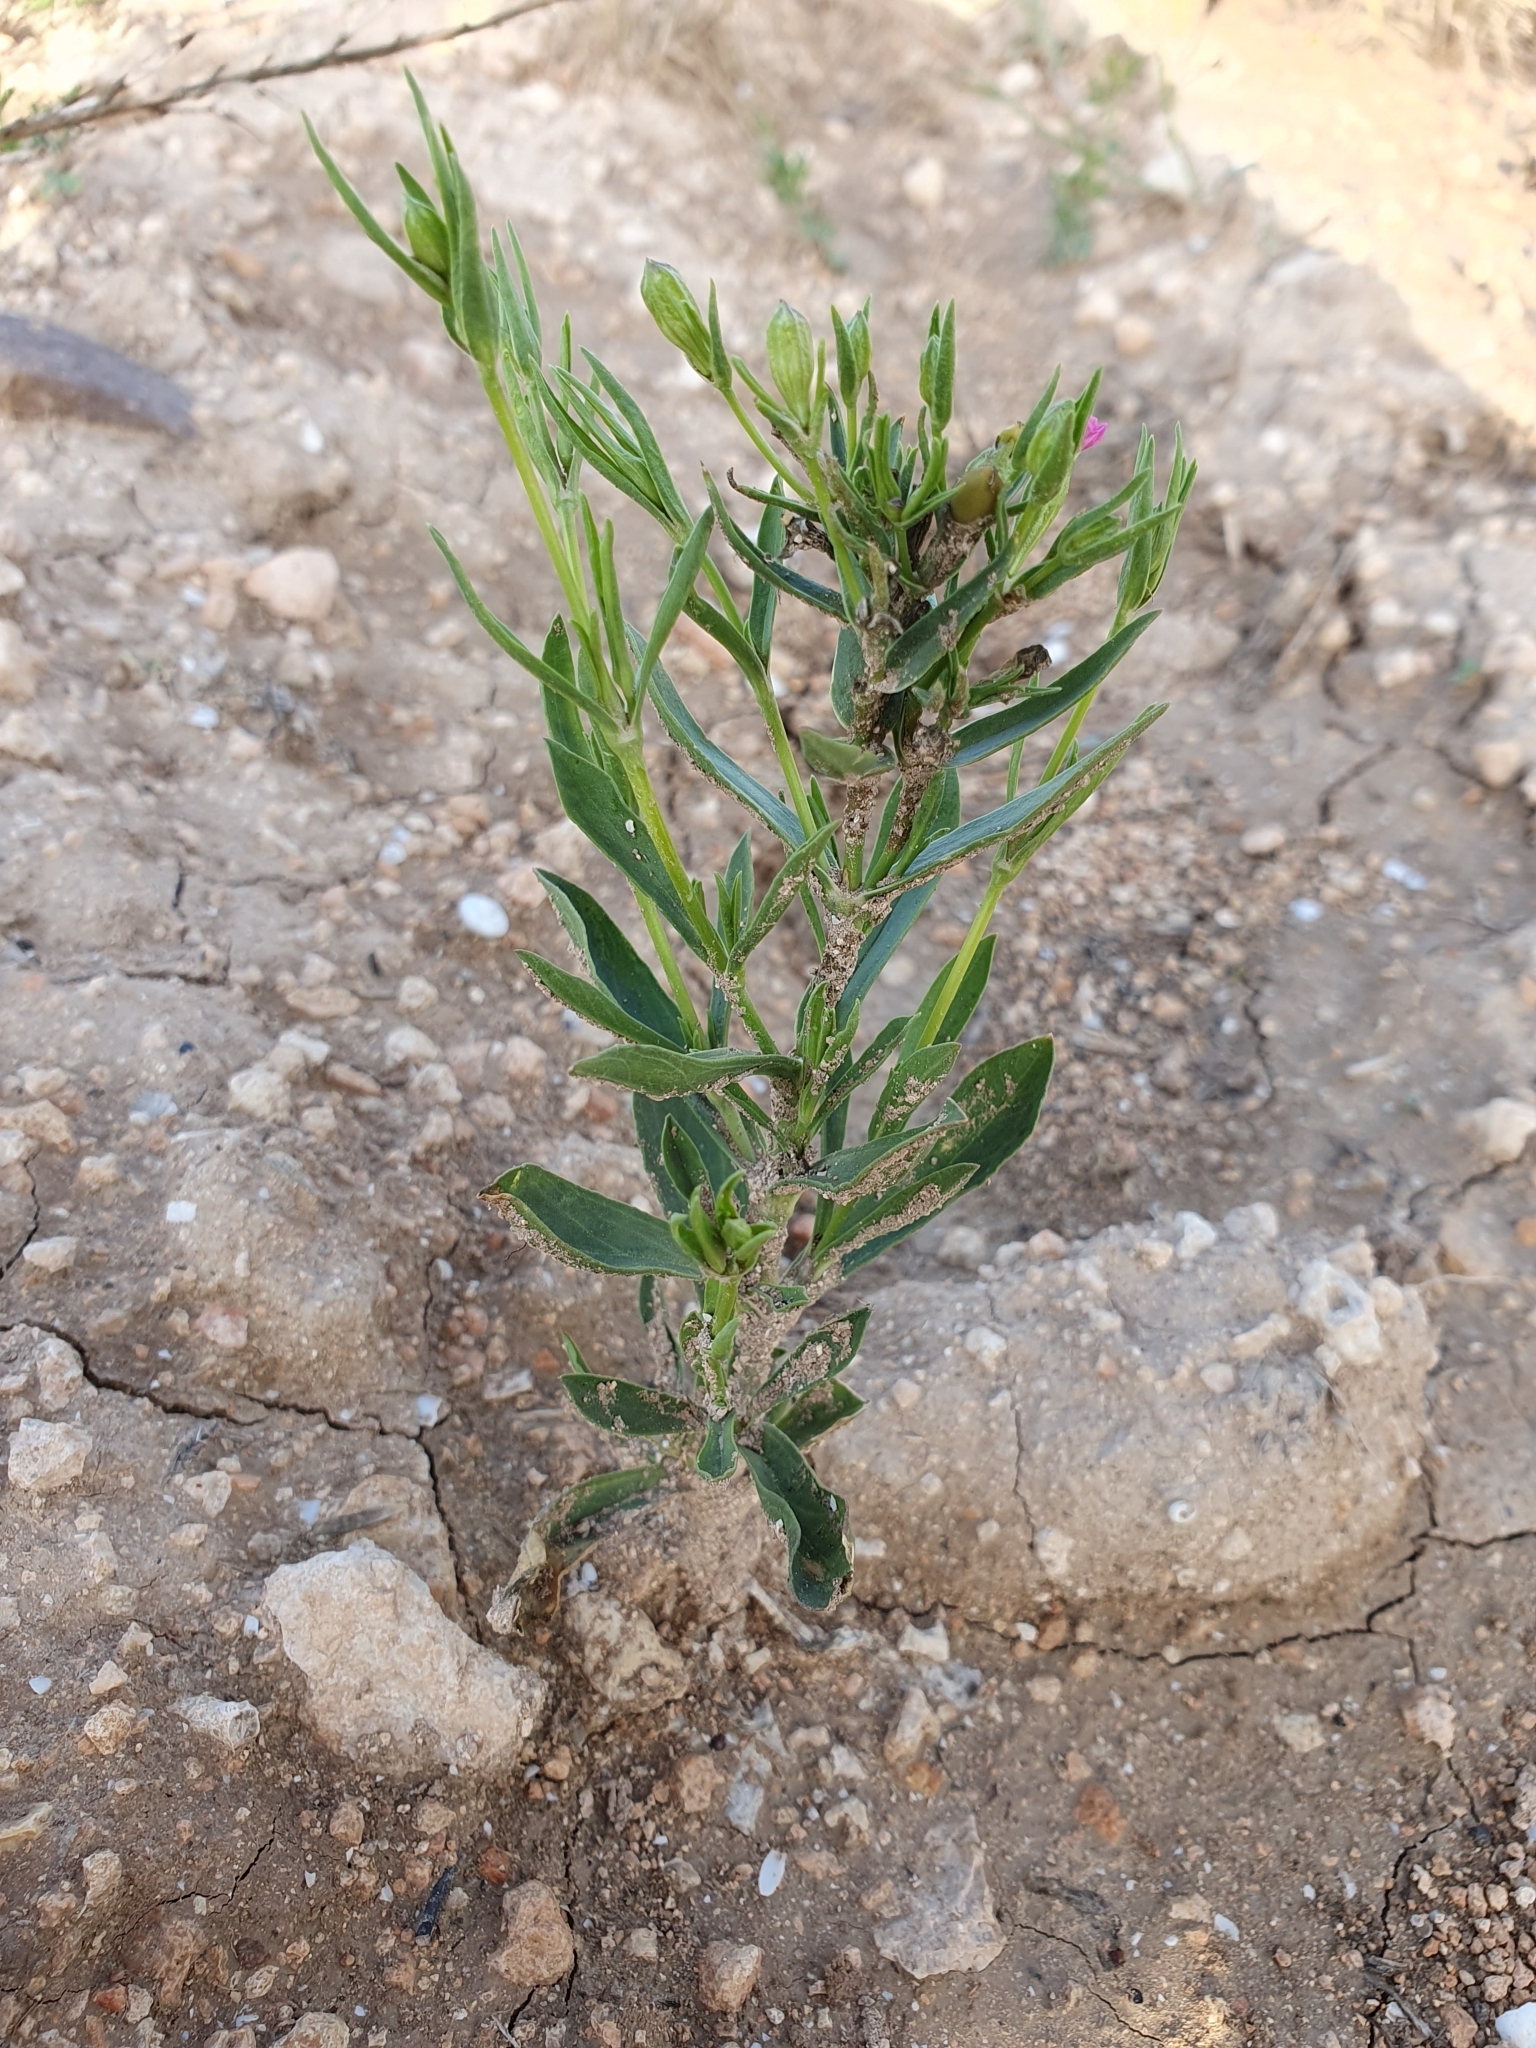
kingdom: Plantae
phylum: Tracheophyta
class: Magnoliopsida
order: Caryophyllales
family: Caryophyllaceae
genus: Silene
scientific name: Silene muscipula
